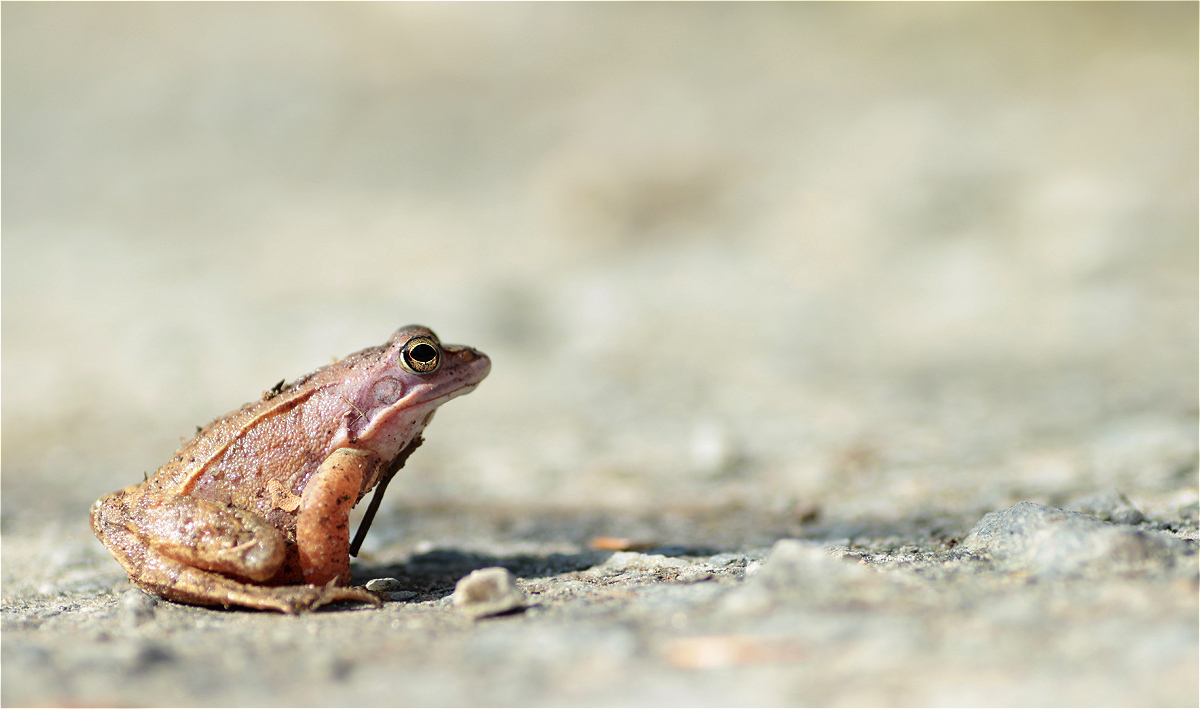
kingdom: Animalia
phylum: Chordata
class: Amphibia
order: Anura
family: Ranidae
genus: Rana
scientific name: Rana arvalis
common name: Moor frog
